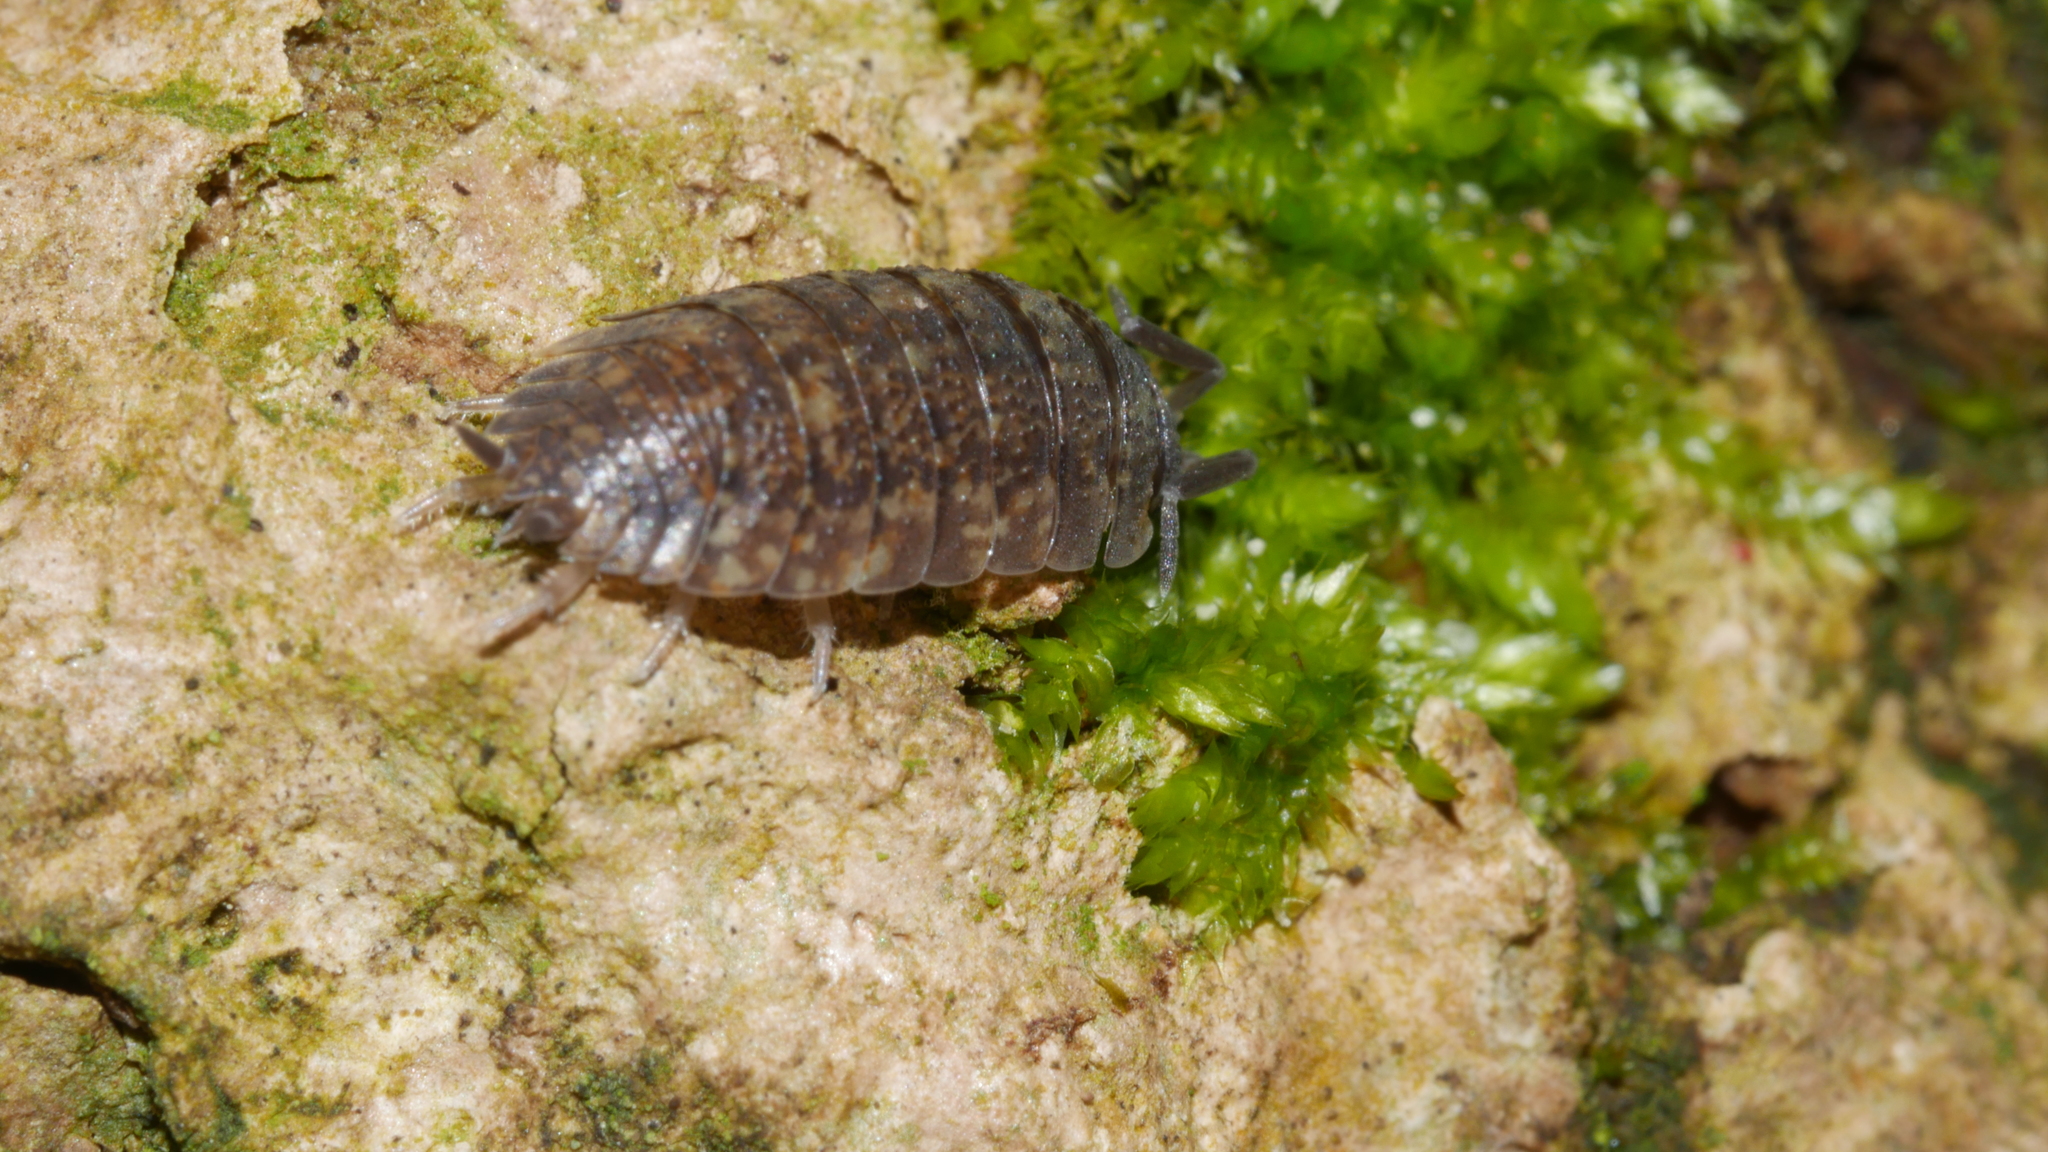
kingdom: Animalia
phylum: Arthropoda
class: Malacostraca
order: Isopoda
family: Porcellionidae
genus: Porcellio
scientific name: Porcellio scaber
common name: Common rough woodlouse
